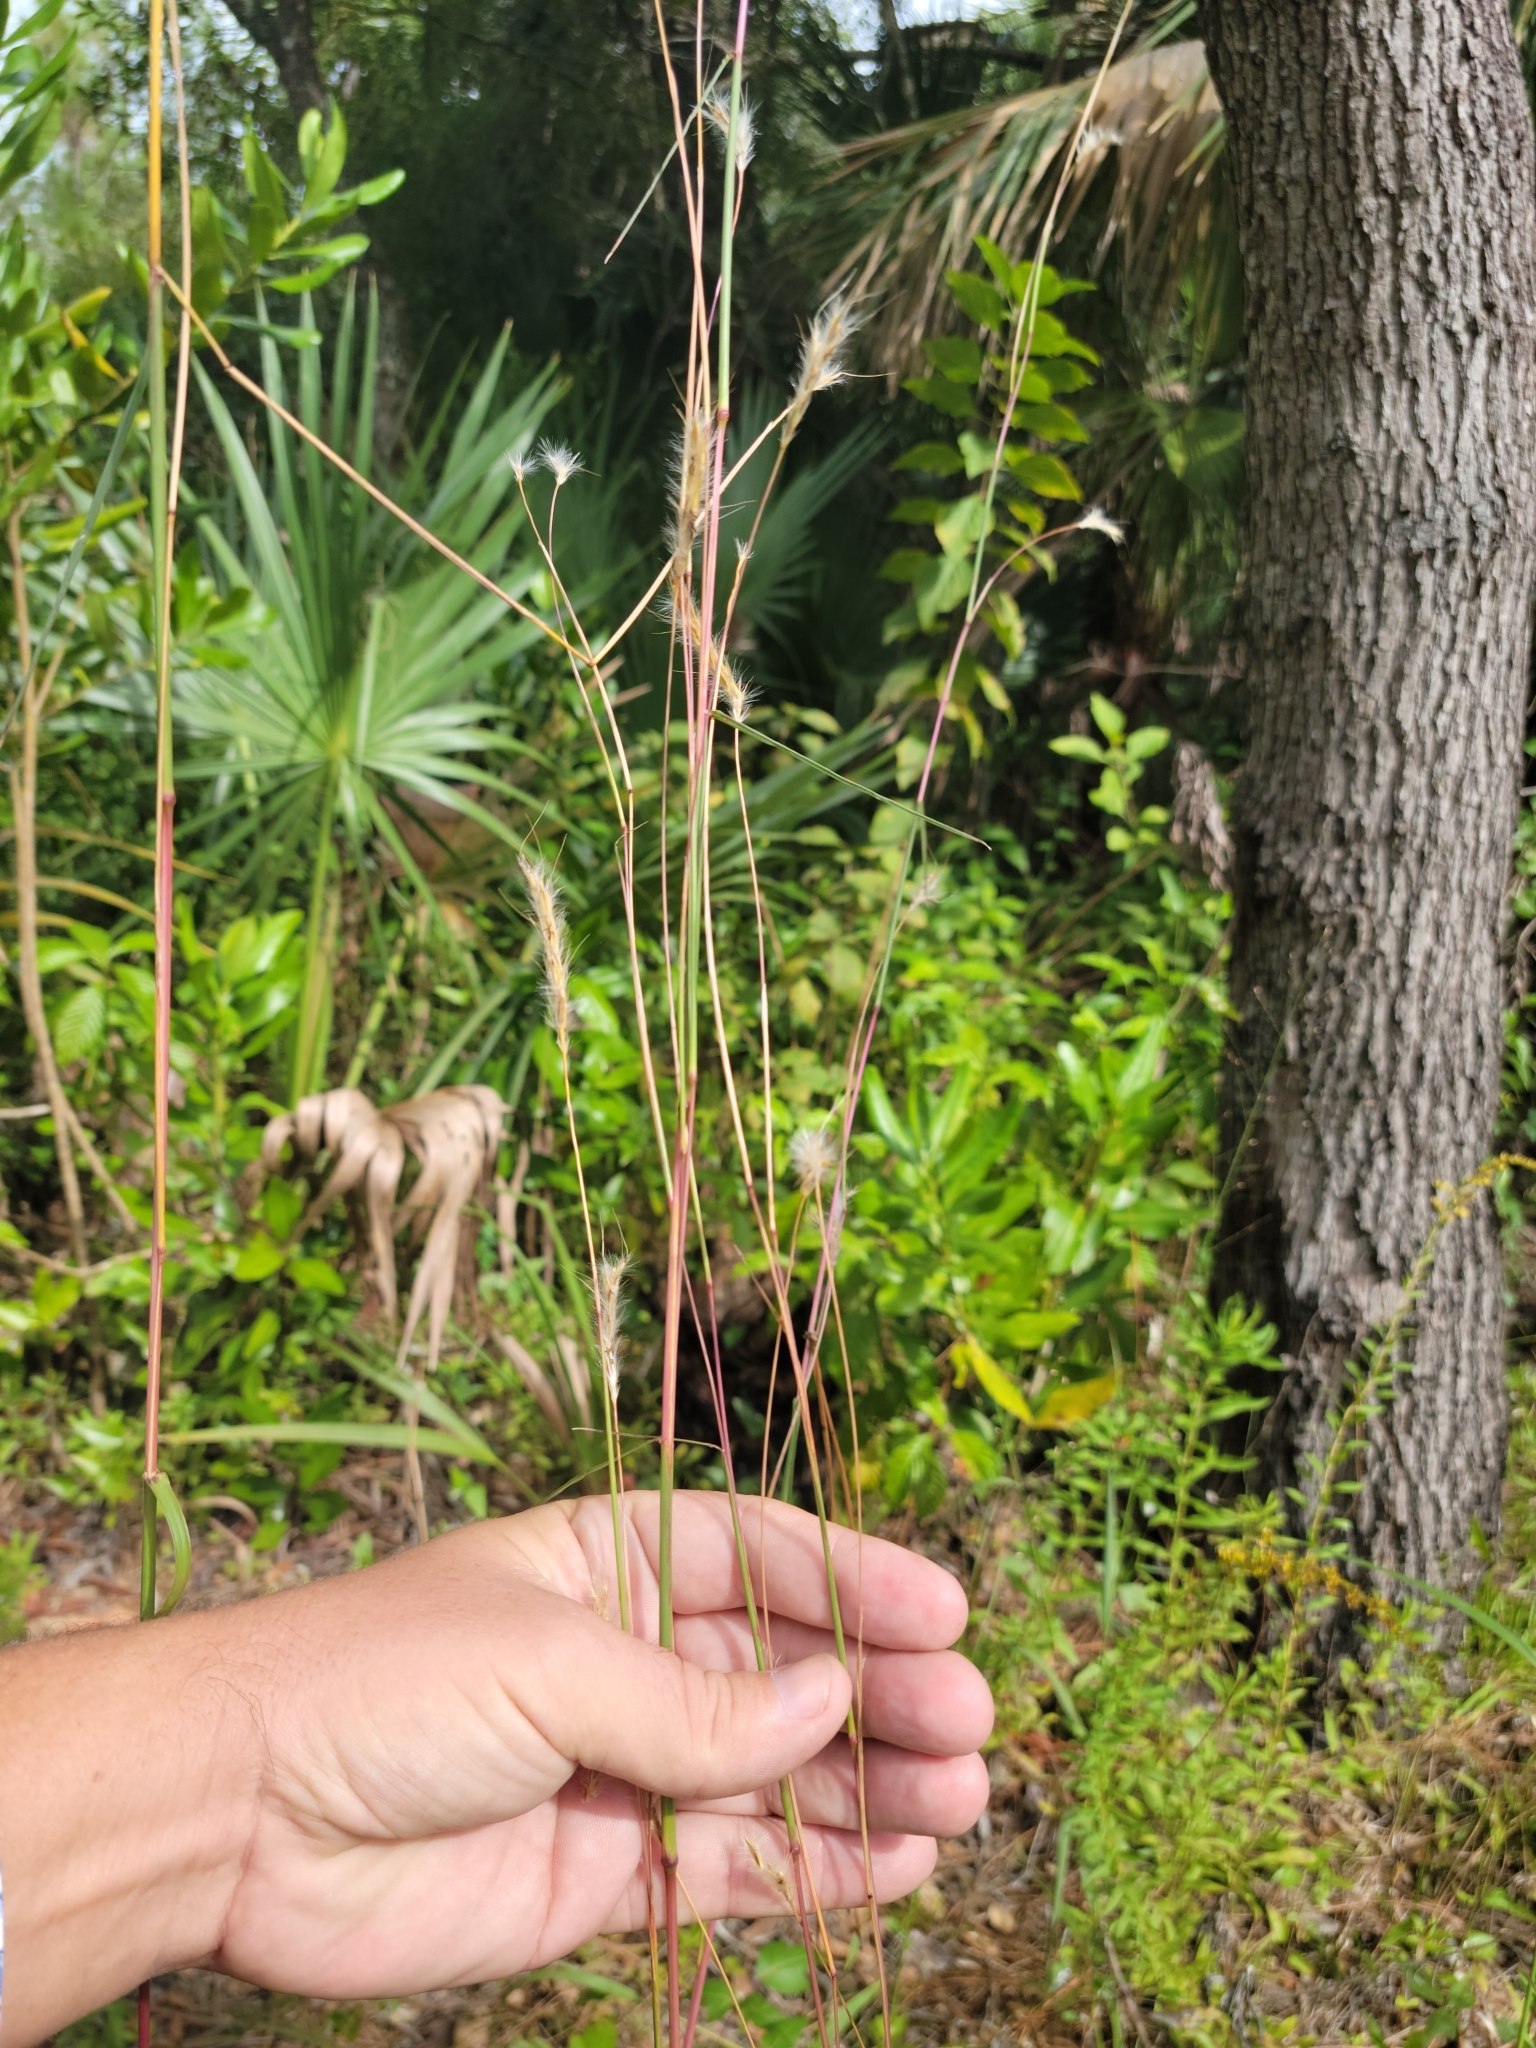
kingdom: Plantae
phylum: Tracheophyta
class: Liliopsida
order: Poales
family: Poaceae
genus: Andropogon
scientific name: Andropogon cabanisii
